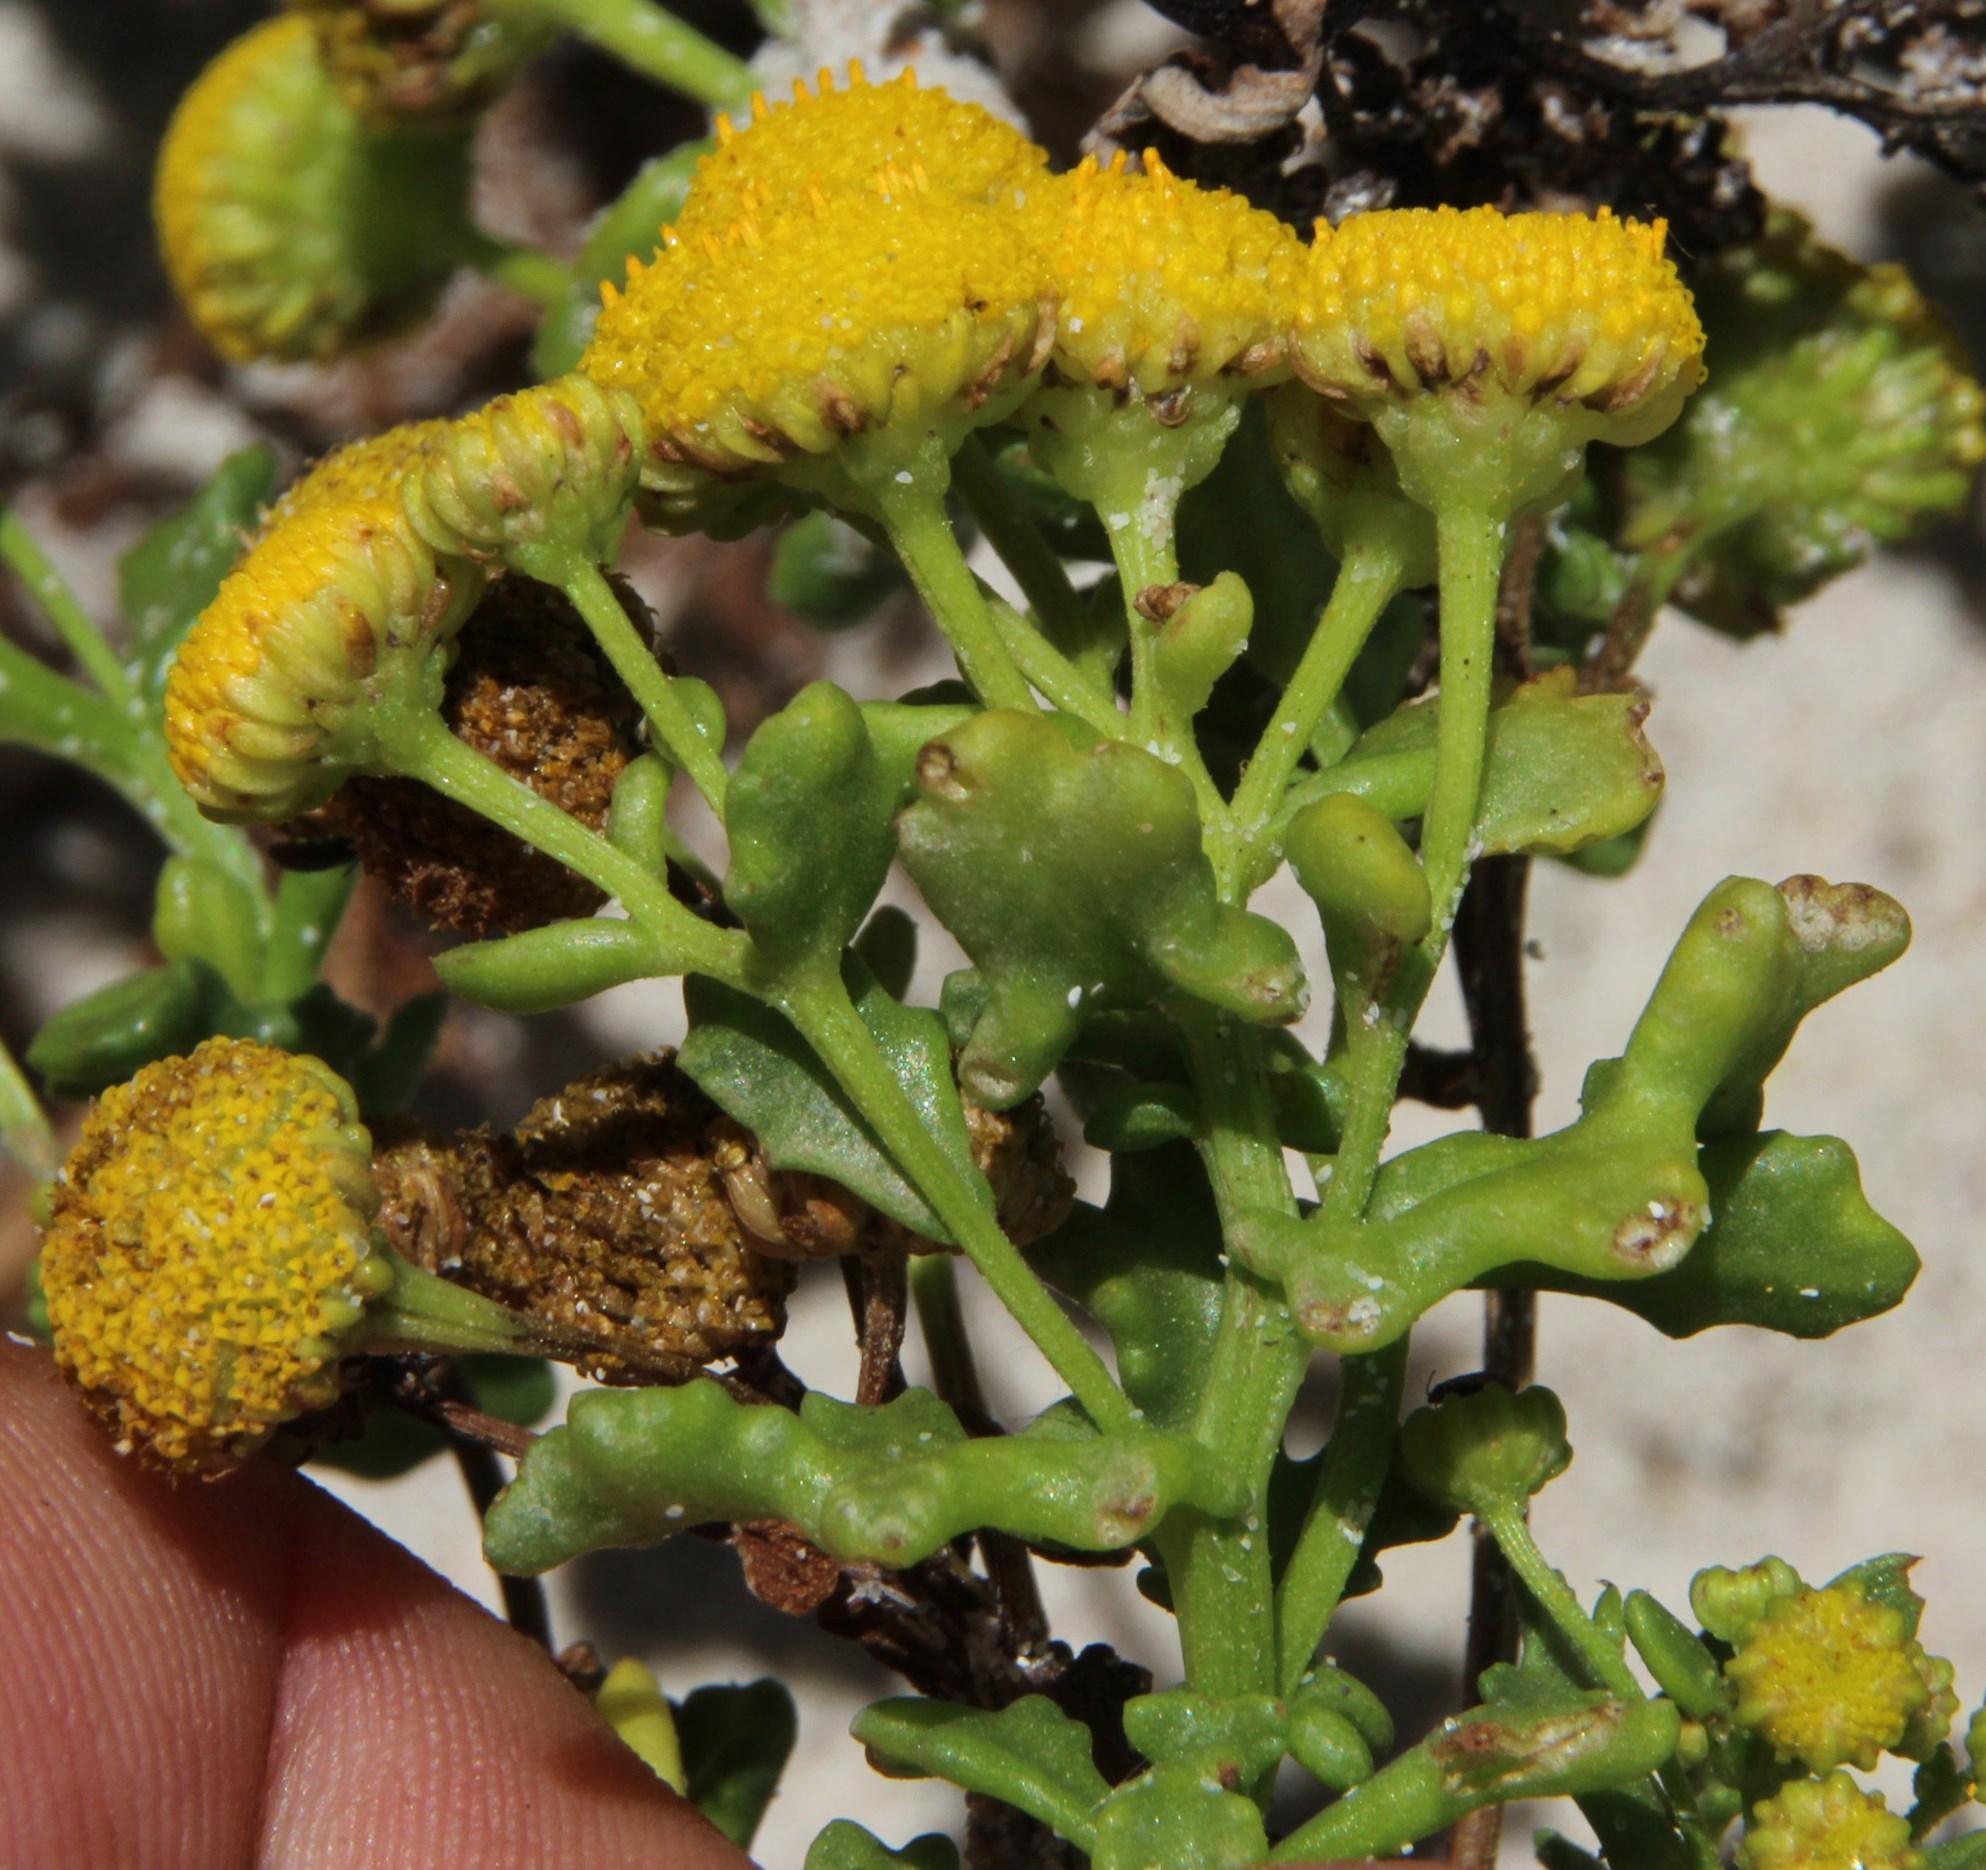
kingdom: Plantae
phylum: Tracheophyta
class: Magnoliopsida
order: Asterales
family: Asteraceae
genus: Oncosiphon
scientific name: Oncosiphon sabulosus
